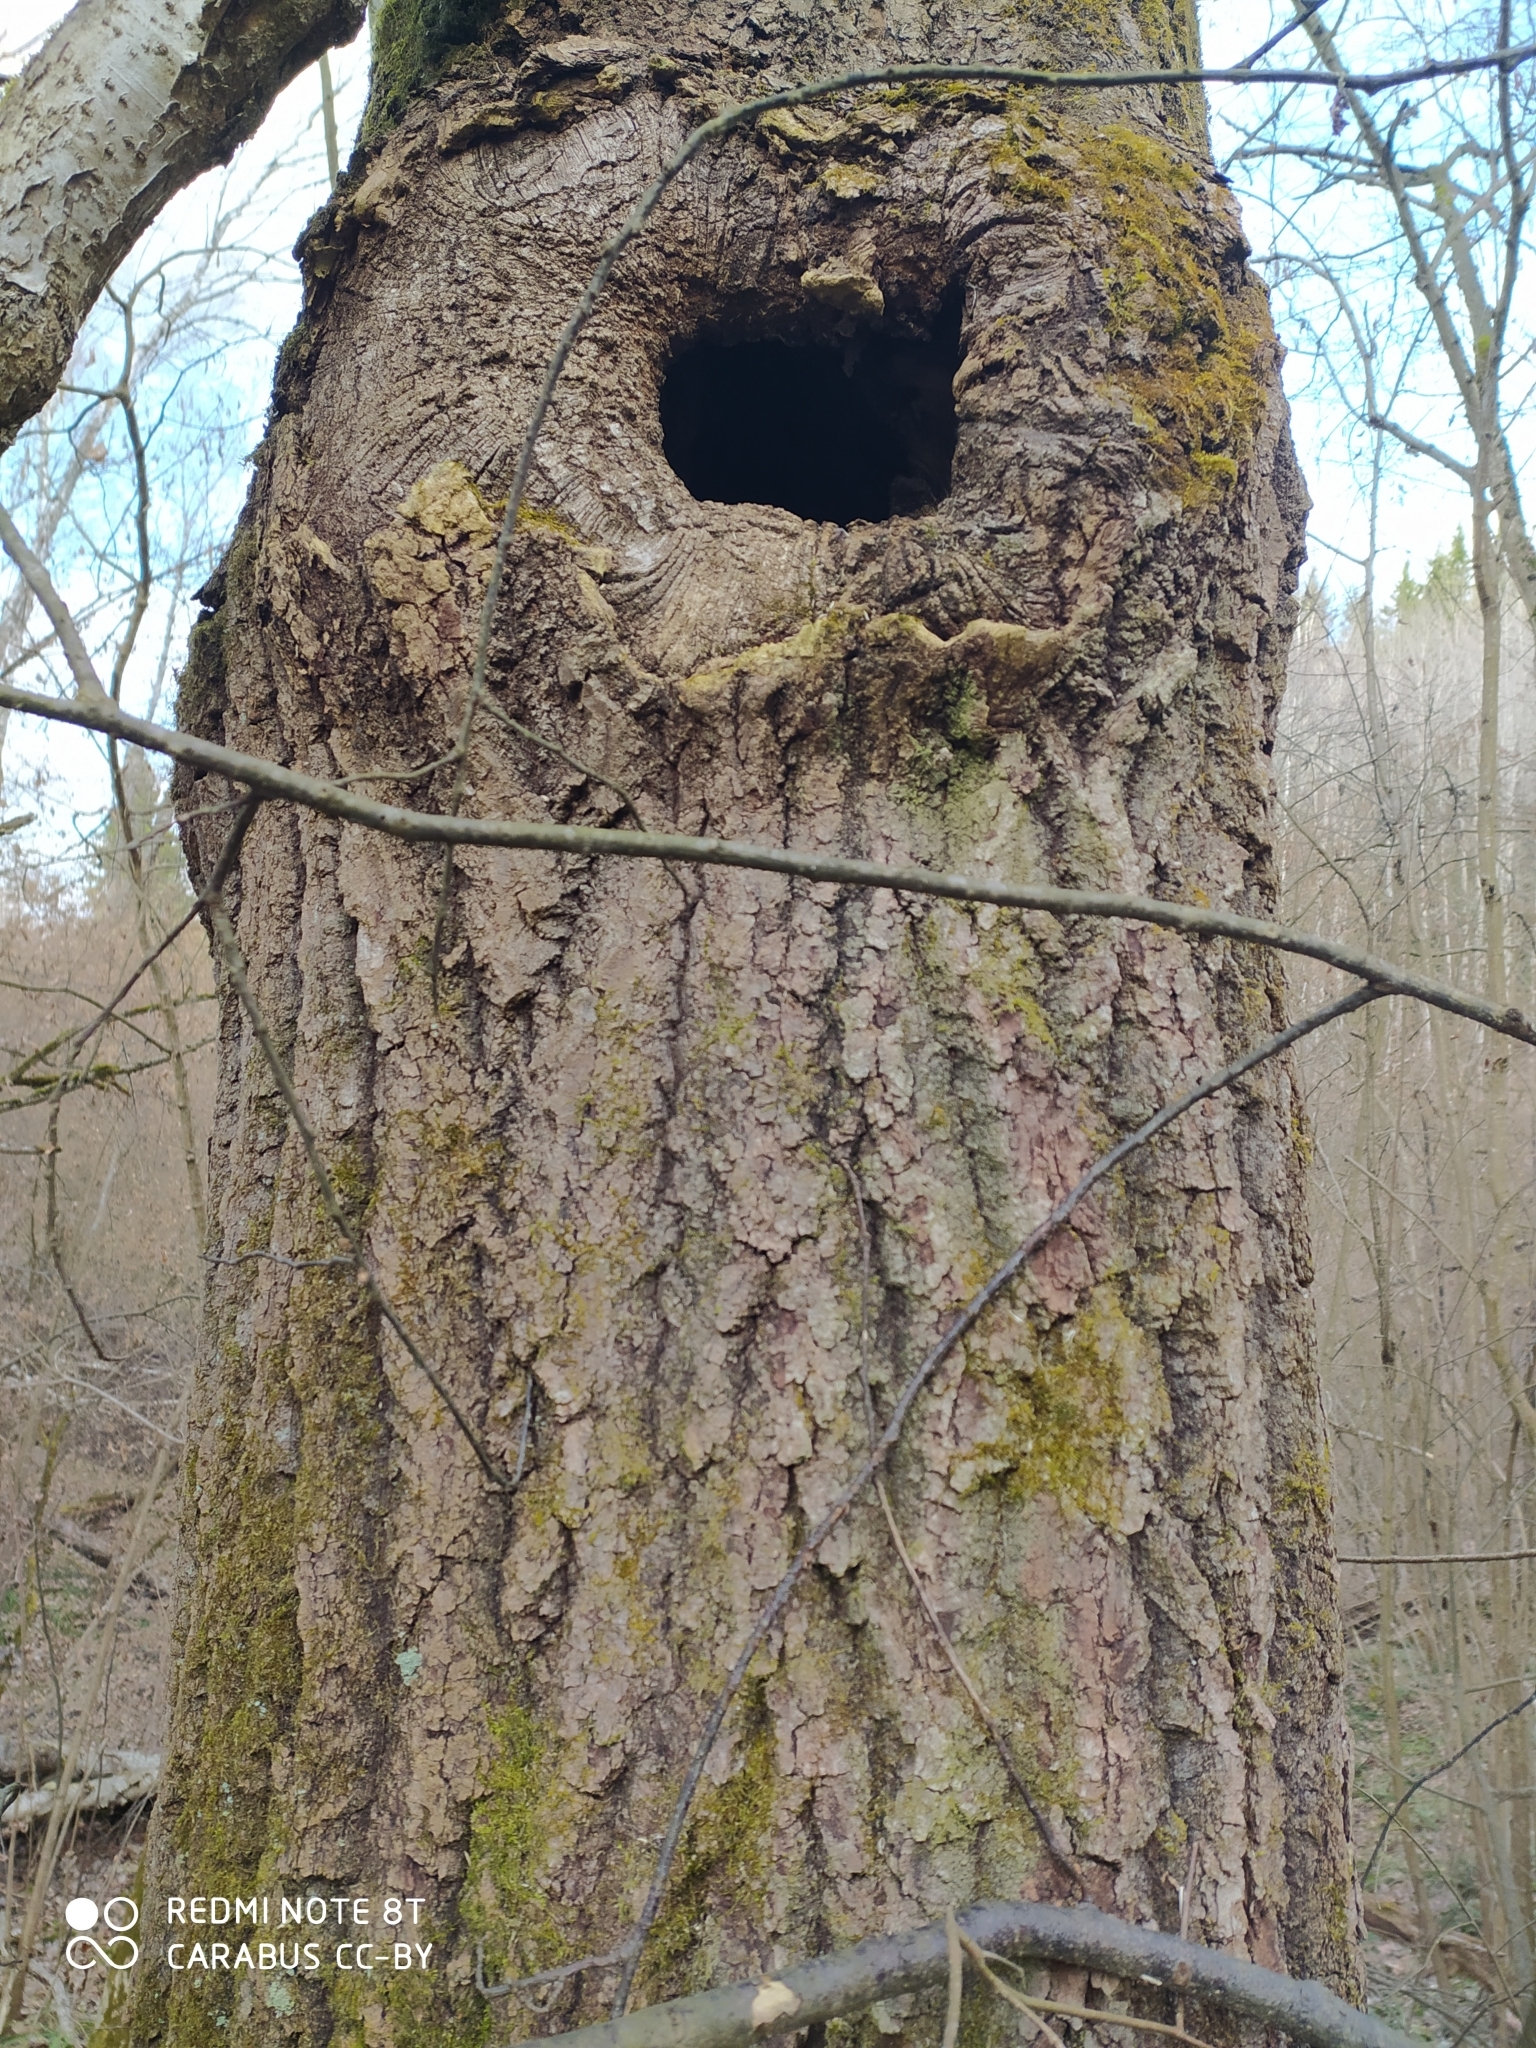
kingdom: Plantae
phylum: Tracheophyta
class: Magnoliopsida
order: Malpighiales
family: Salicaceae
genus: Populus
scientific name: Populus tremula
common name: European aspen
